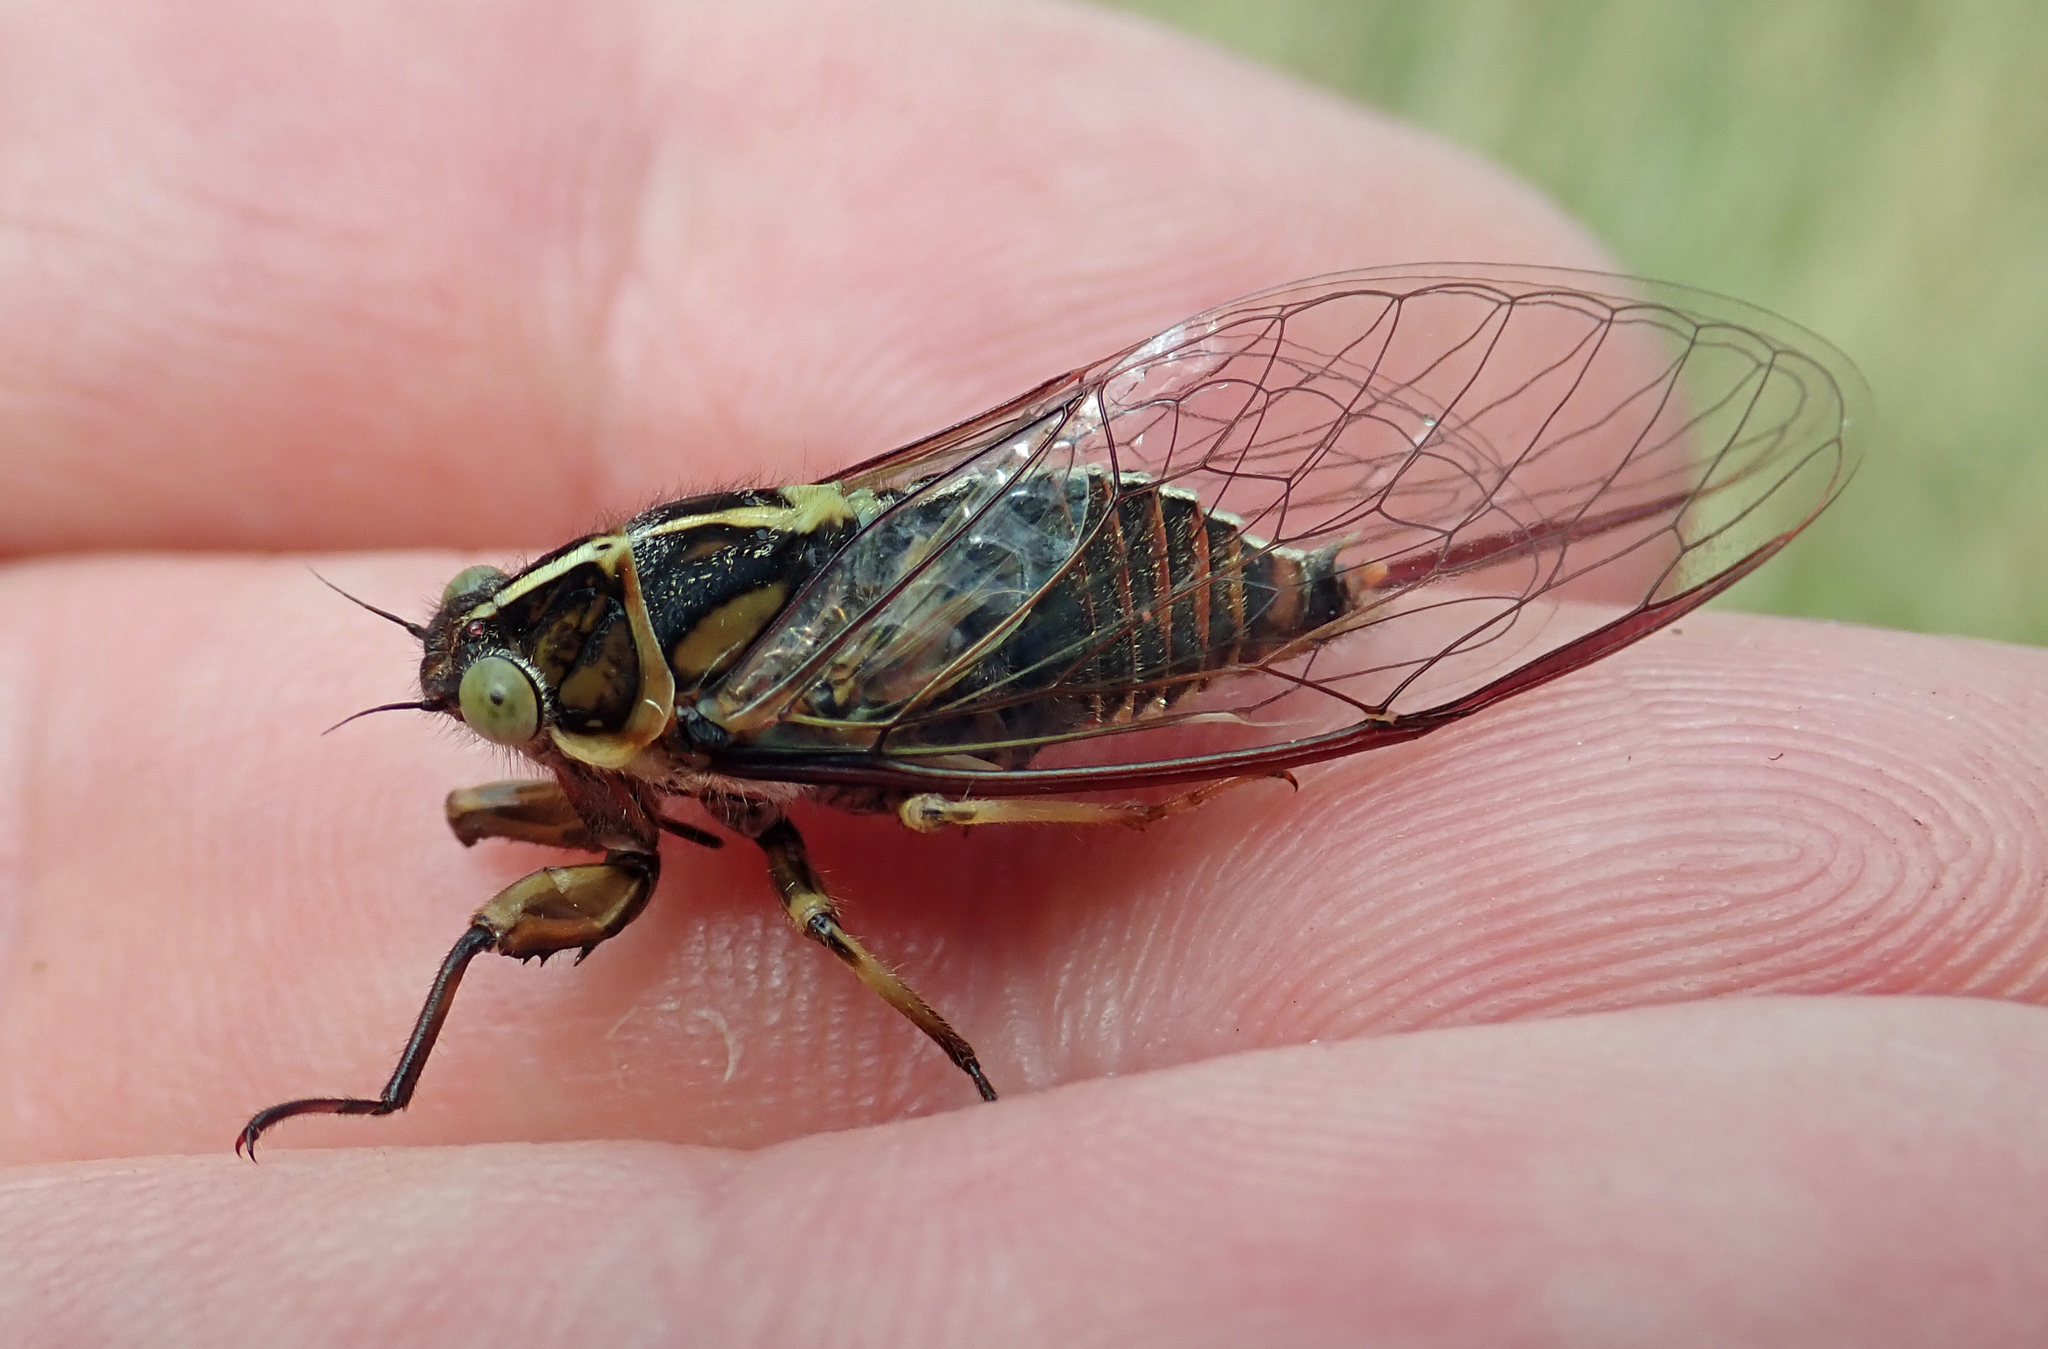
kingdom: Animalia
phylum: Arthropoda
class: Insecta
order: Hemiptera
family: Cicadidae
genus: Kikihia
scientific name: Kikihia longula
